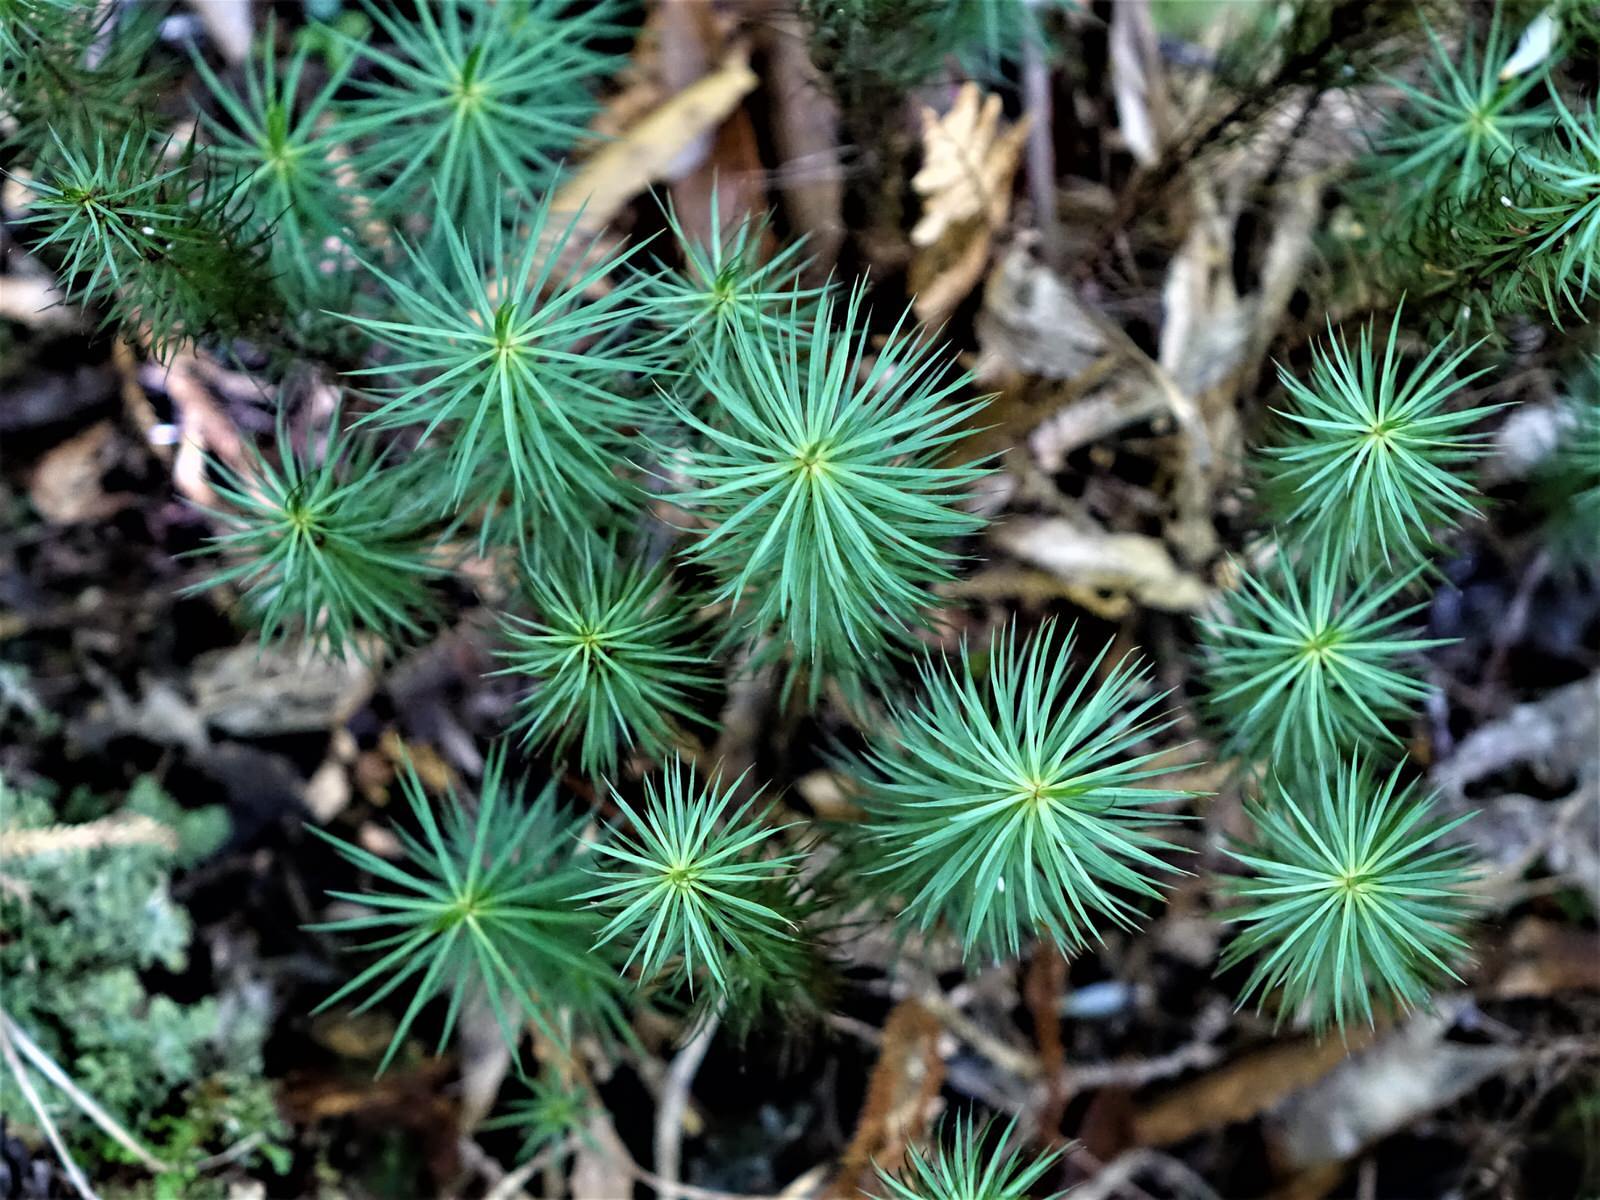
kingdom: Plantae
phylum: Bryophyta
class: Polytrichopsida
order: Polytrichales
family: Polytrichaceae
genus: Dawsonia
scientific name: Dawsonia superba
